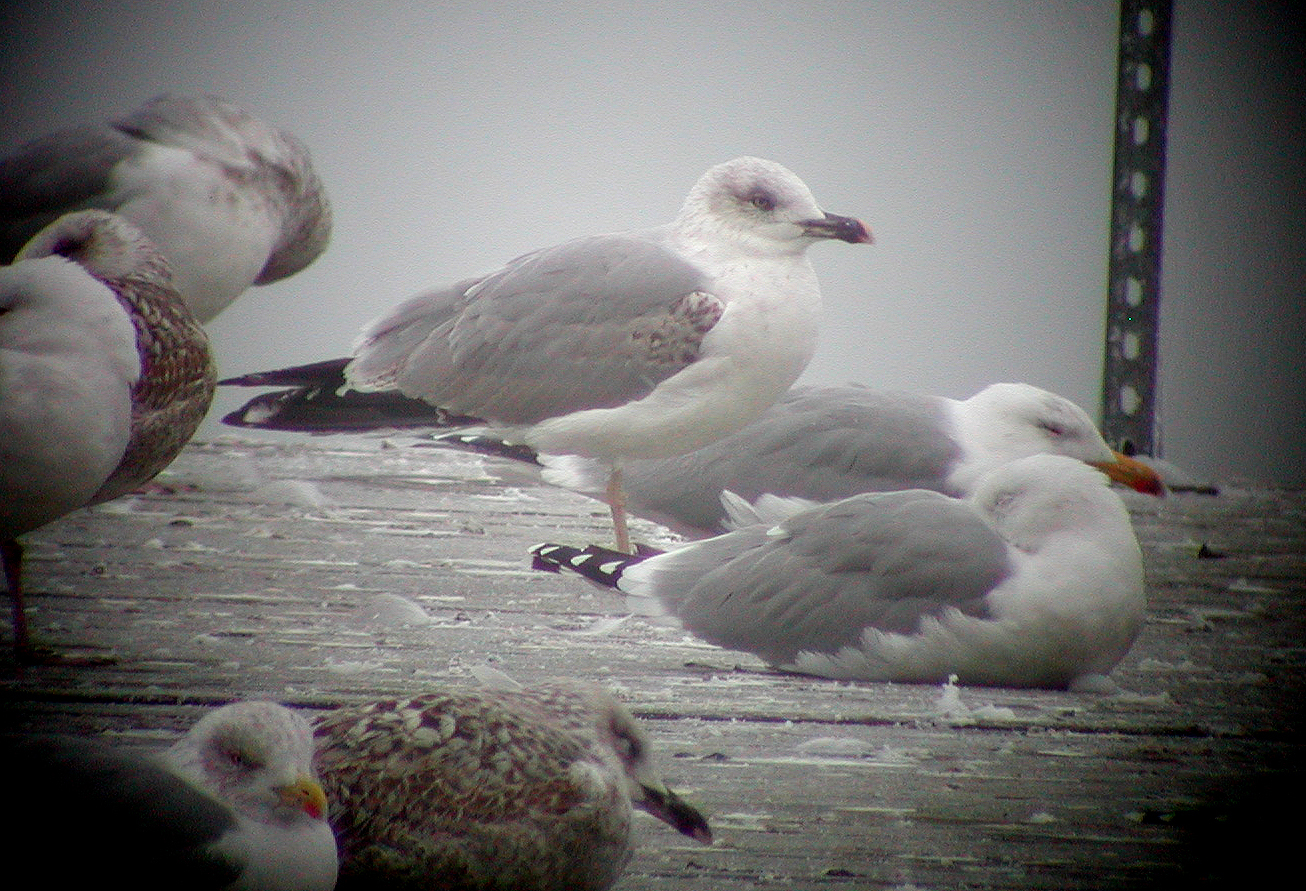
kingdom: Animalia
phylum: Chordata
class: Aves
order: Charadriiformes
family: Laridae
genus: Larus
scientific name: Larus michahellis
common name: Yellow-legged gull
